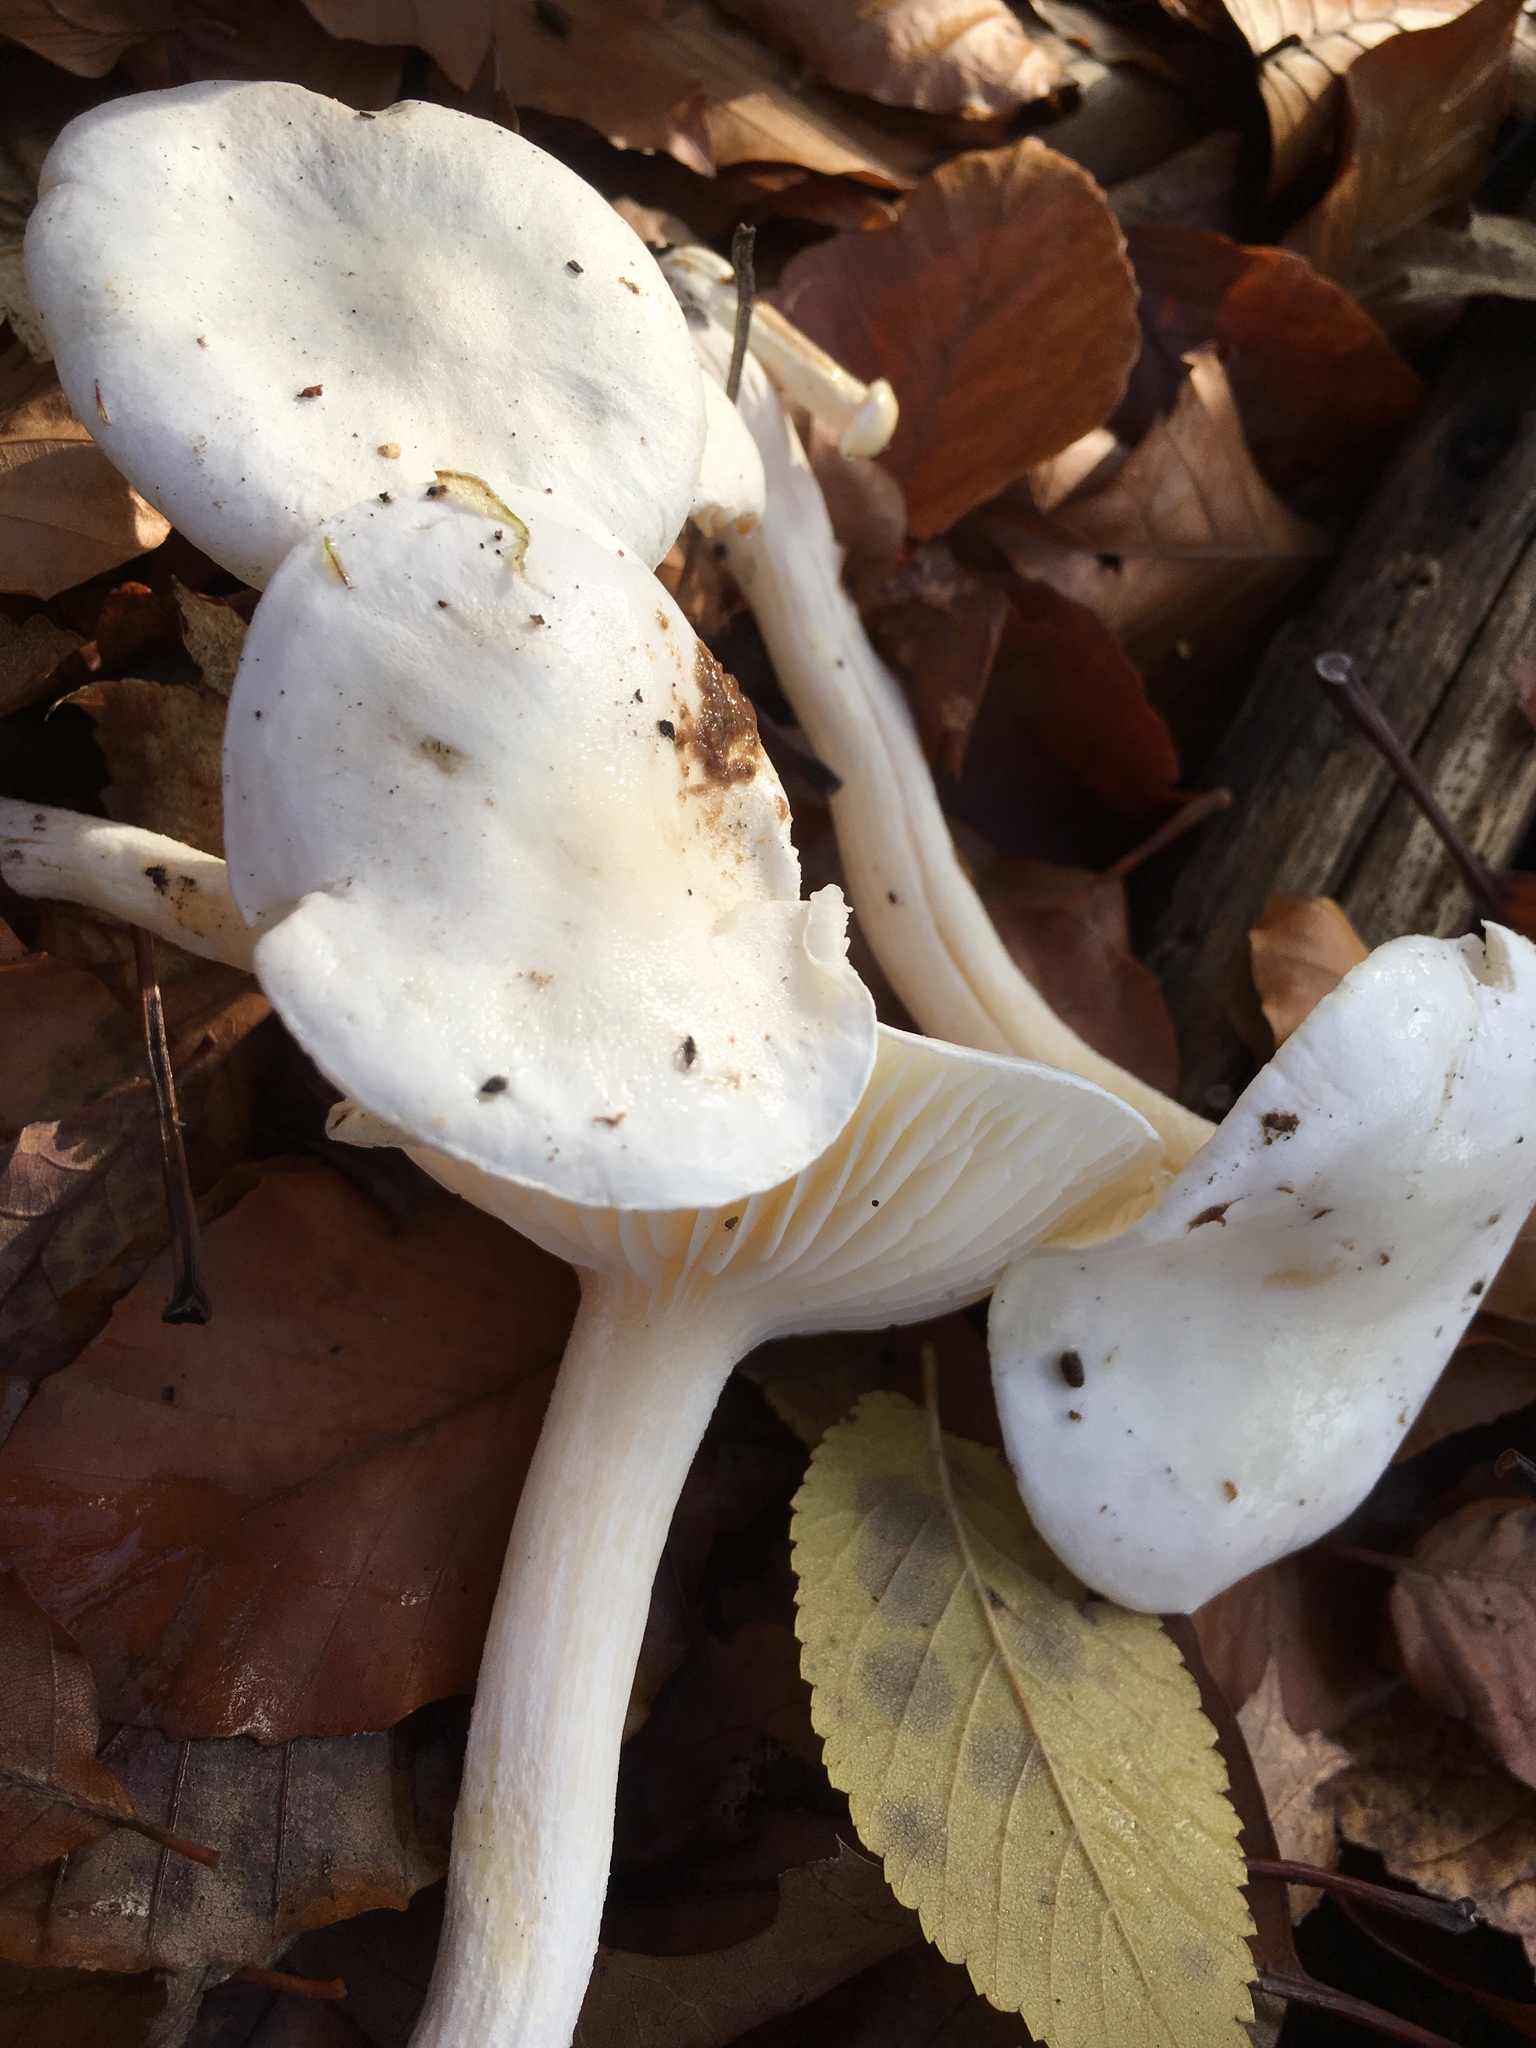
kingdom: Fungi
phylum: Basidiomycota
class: Agaricomycetes
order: Agaricales
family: Hygrophoraceae
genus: Hygrophorus
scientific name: Hygrophorus eburneus
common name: Ivory wax-cap
